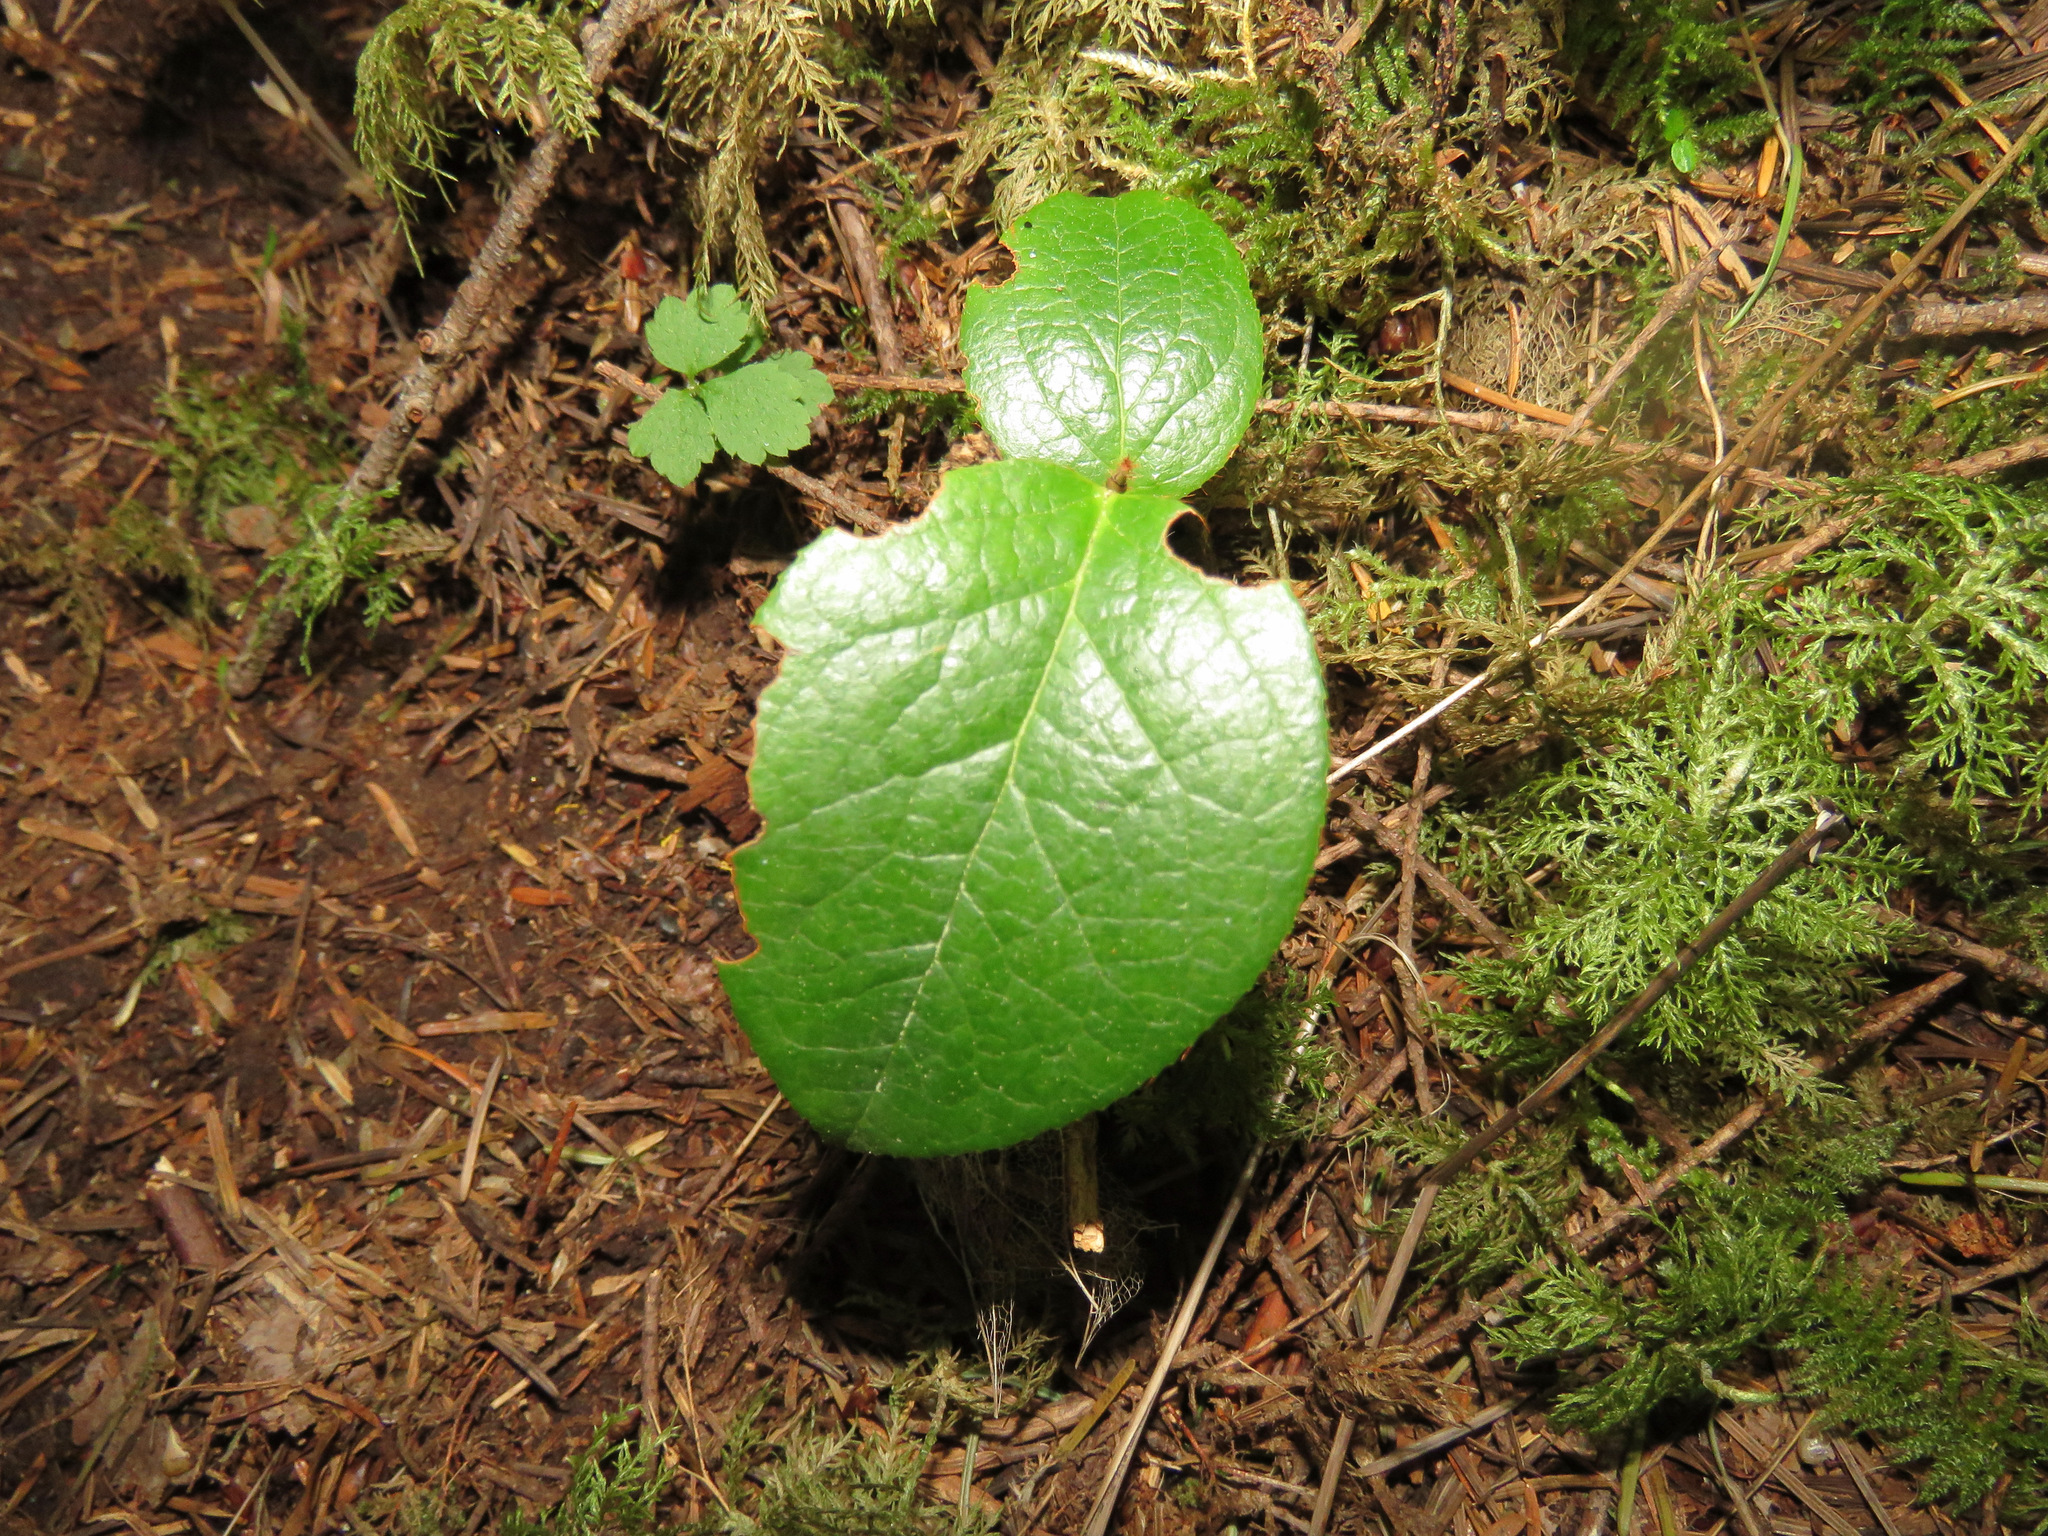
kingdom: Plantae
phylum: Tracheophyta
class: Magnoliopsida
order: Ericales
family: Ericaceae
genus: Gaultheria
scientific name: Gaultheria shallon
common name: Shallon
